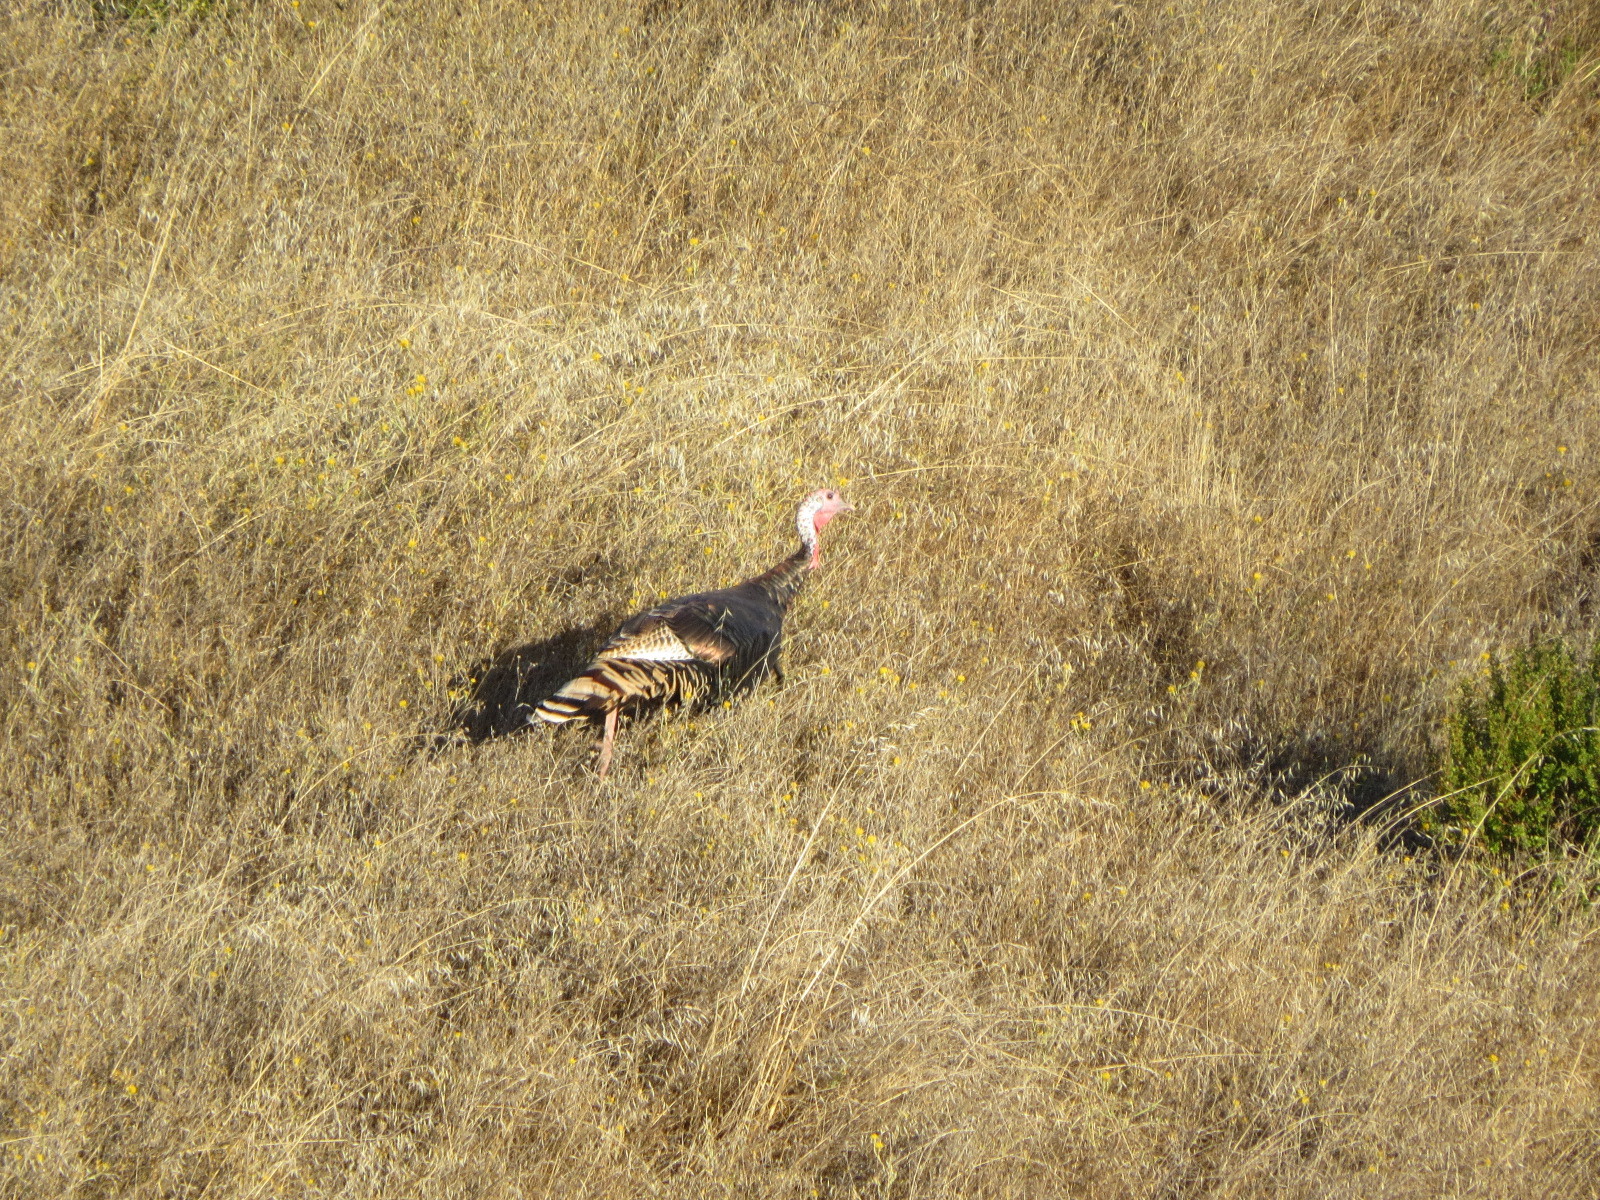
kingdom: Animalia
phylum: Chordata
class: Aves
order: Galliformes
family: Phasianidae
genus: Meleagris
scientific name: Meleagris gallopavo
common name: Wild turkey
